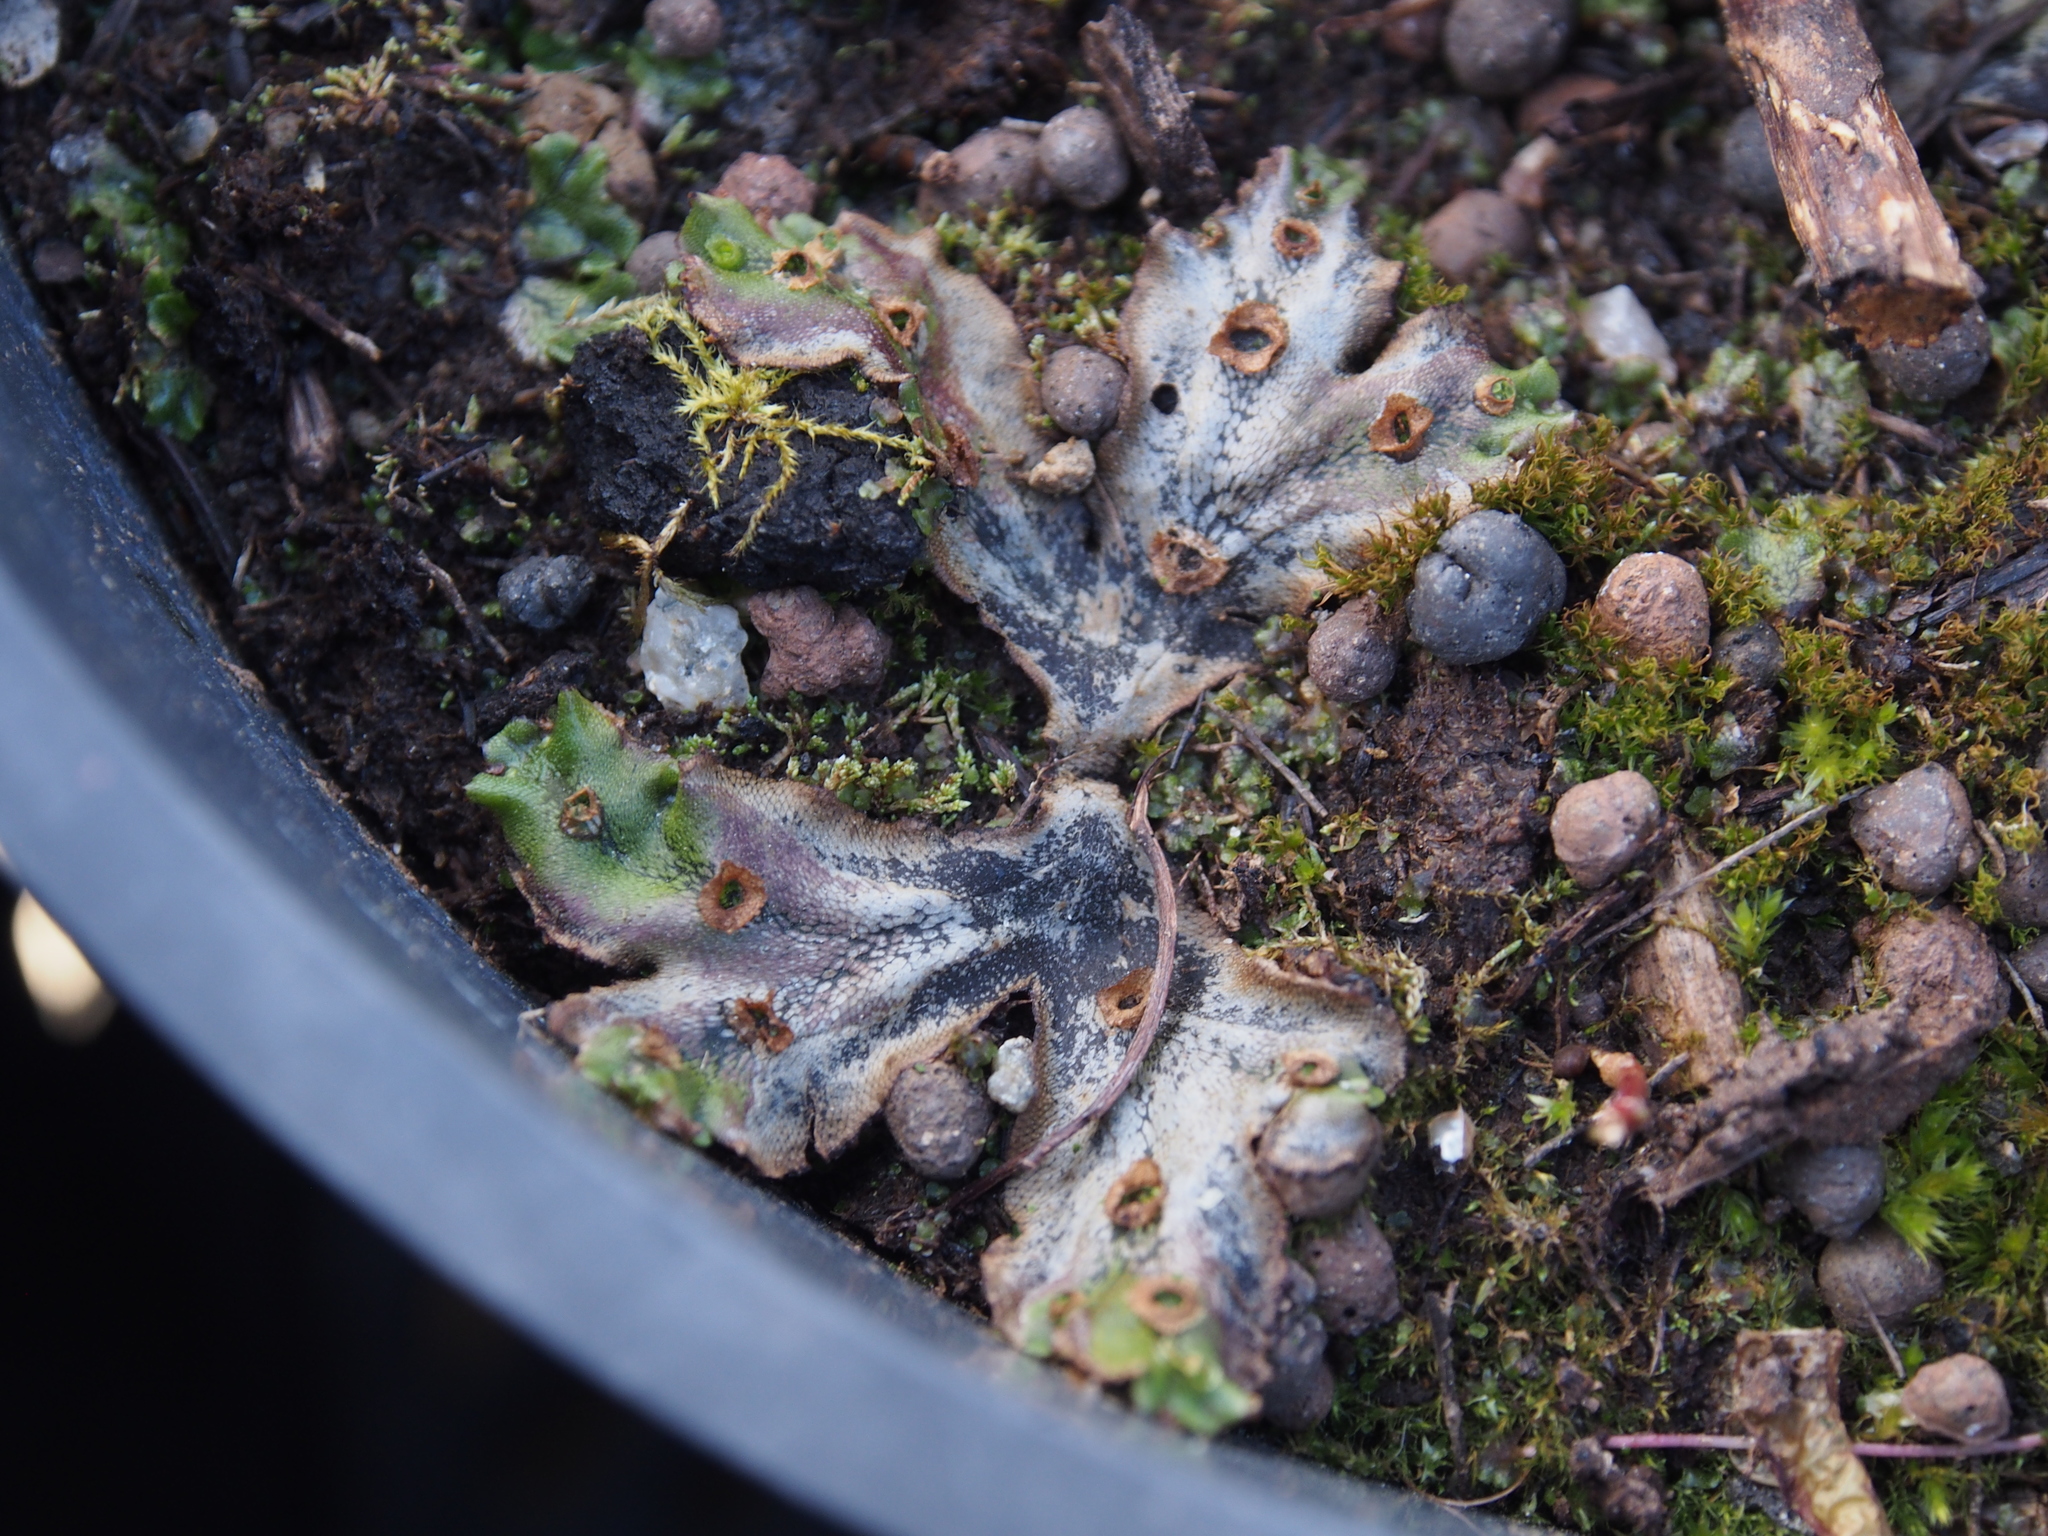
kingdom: Plantae
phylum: Marchantiophyta
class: Marchantiopsida
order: Marchantiales
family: Marchantiaceae
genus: Marchantia
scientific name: Marchantia polymorpha
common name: Common liverwort
